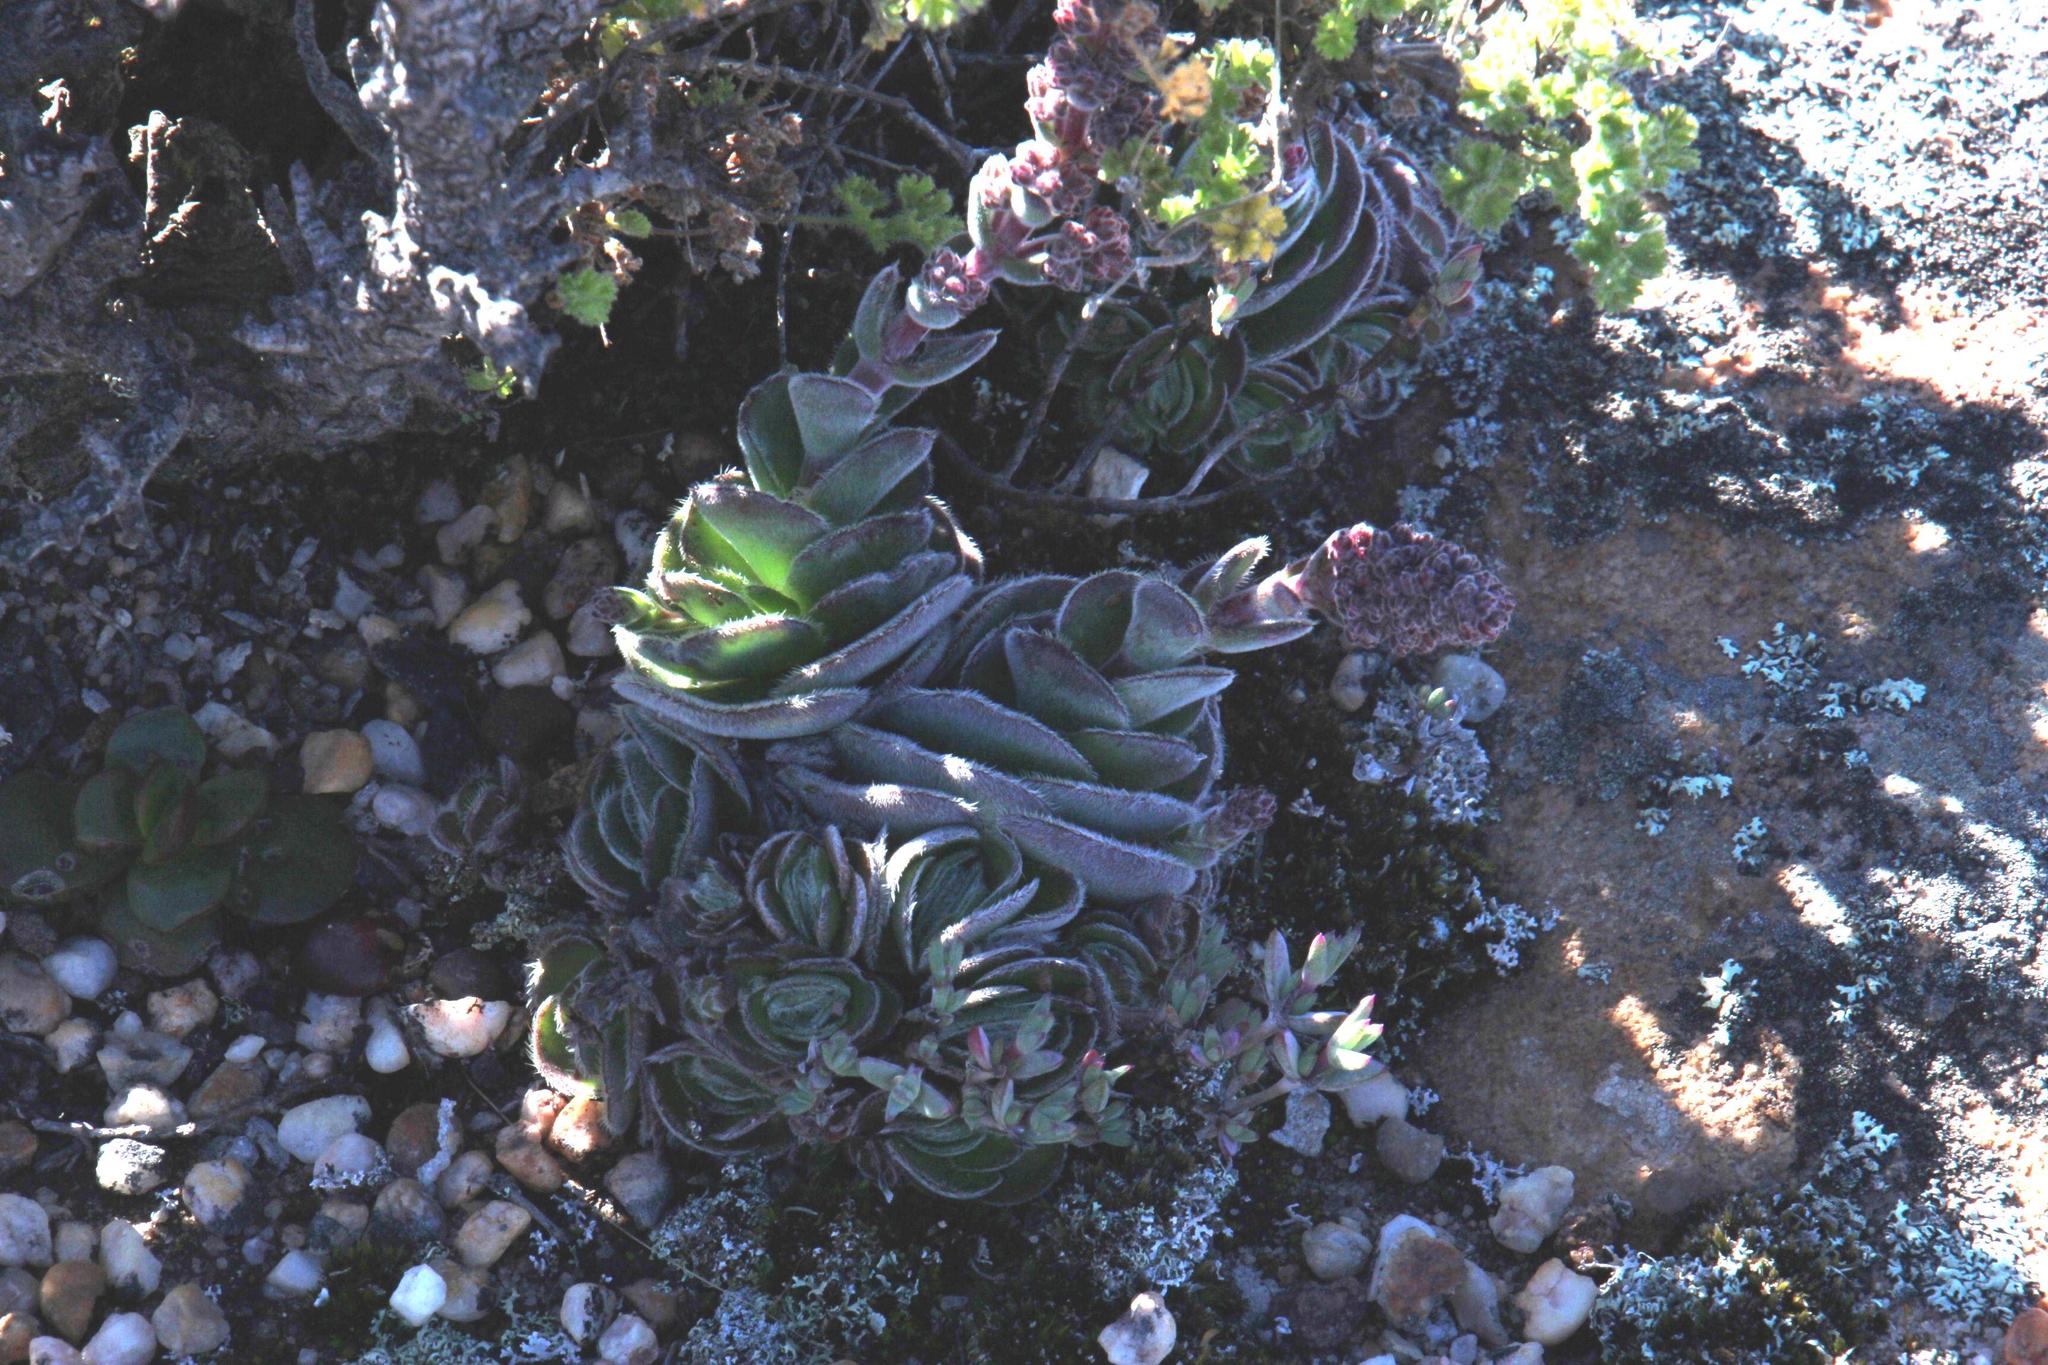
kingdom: Plantae
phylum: Tracheophyta
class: Magnoliopsida
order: Saxifragales
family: Crassulaceae
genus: Crassula
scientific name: Crassula tomentosa
